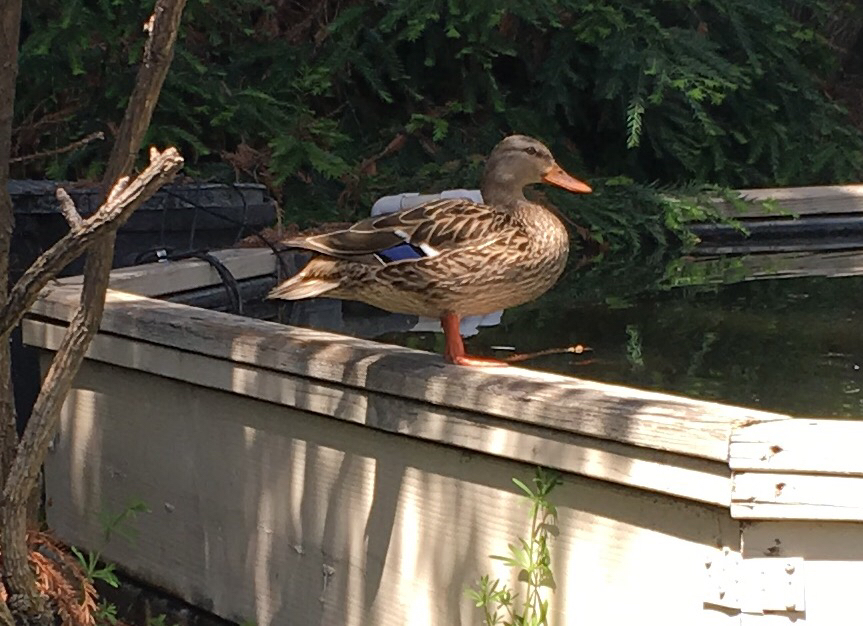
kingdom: Animalia
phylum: Chordata
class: Aves
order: Anseriformes
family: Anatidae
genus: Anas
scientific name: Anas platyrhynchos
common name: Mallard
